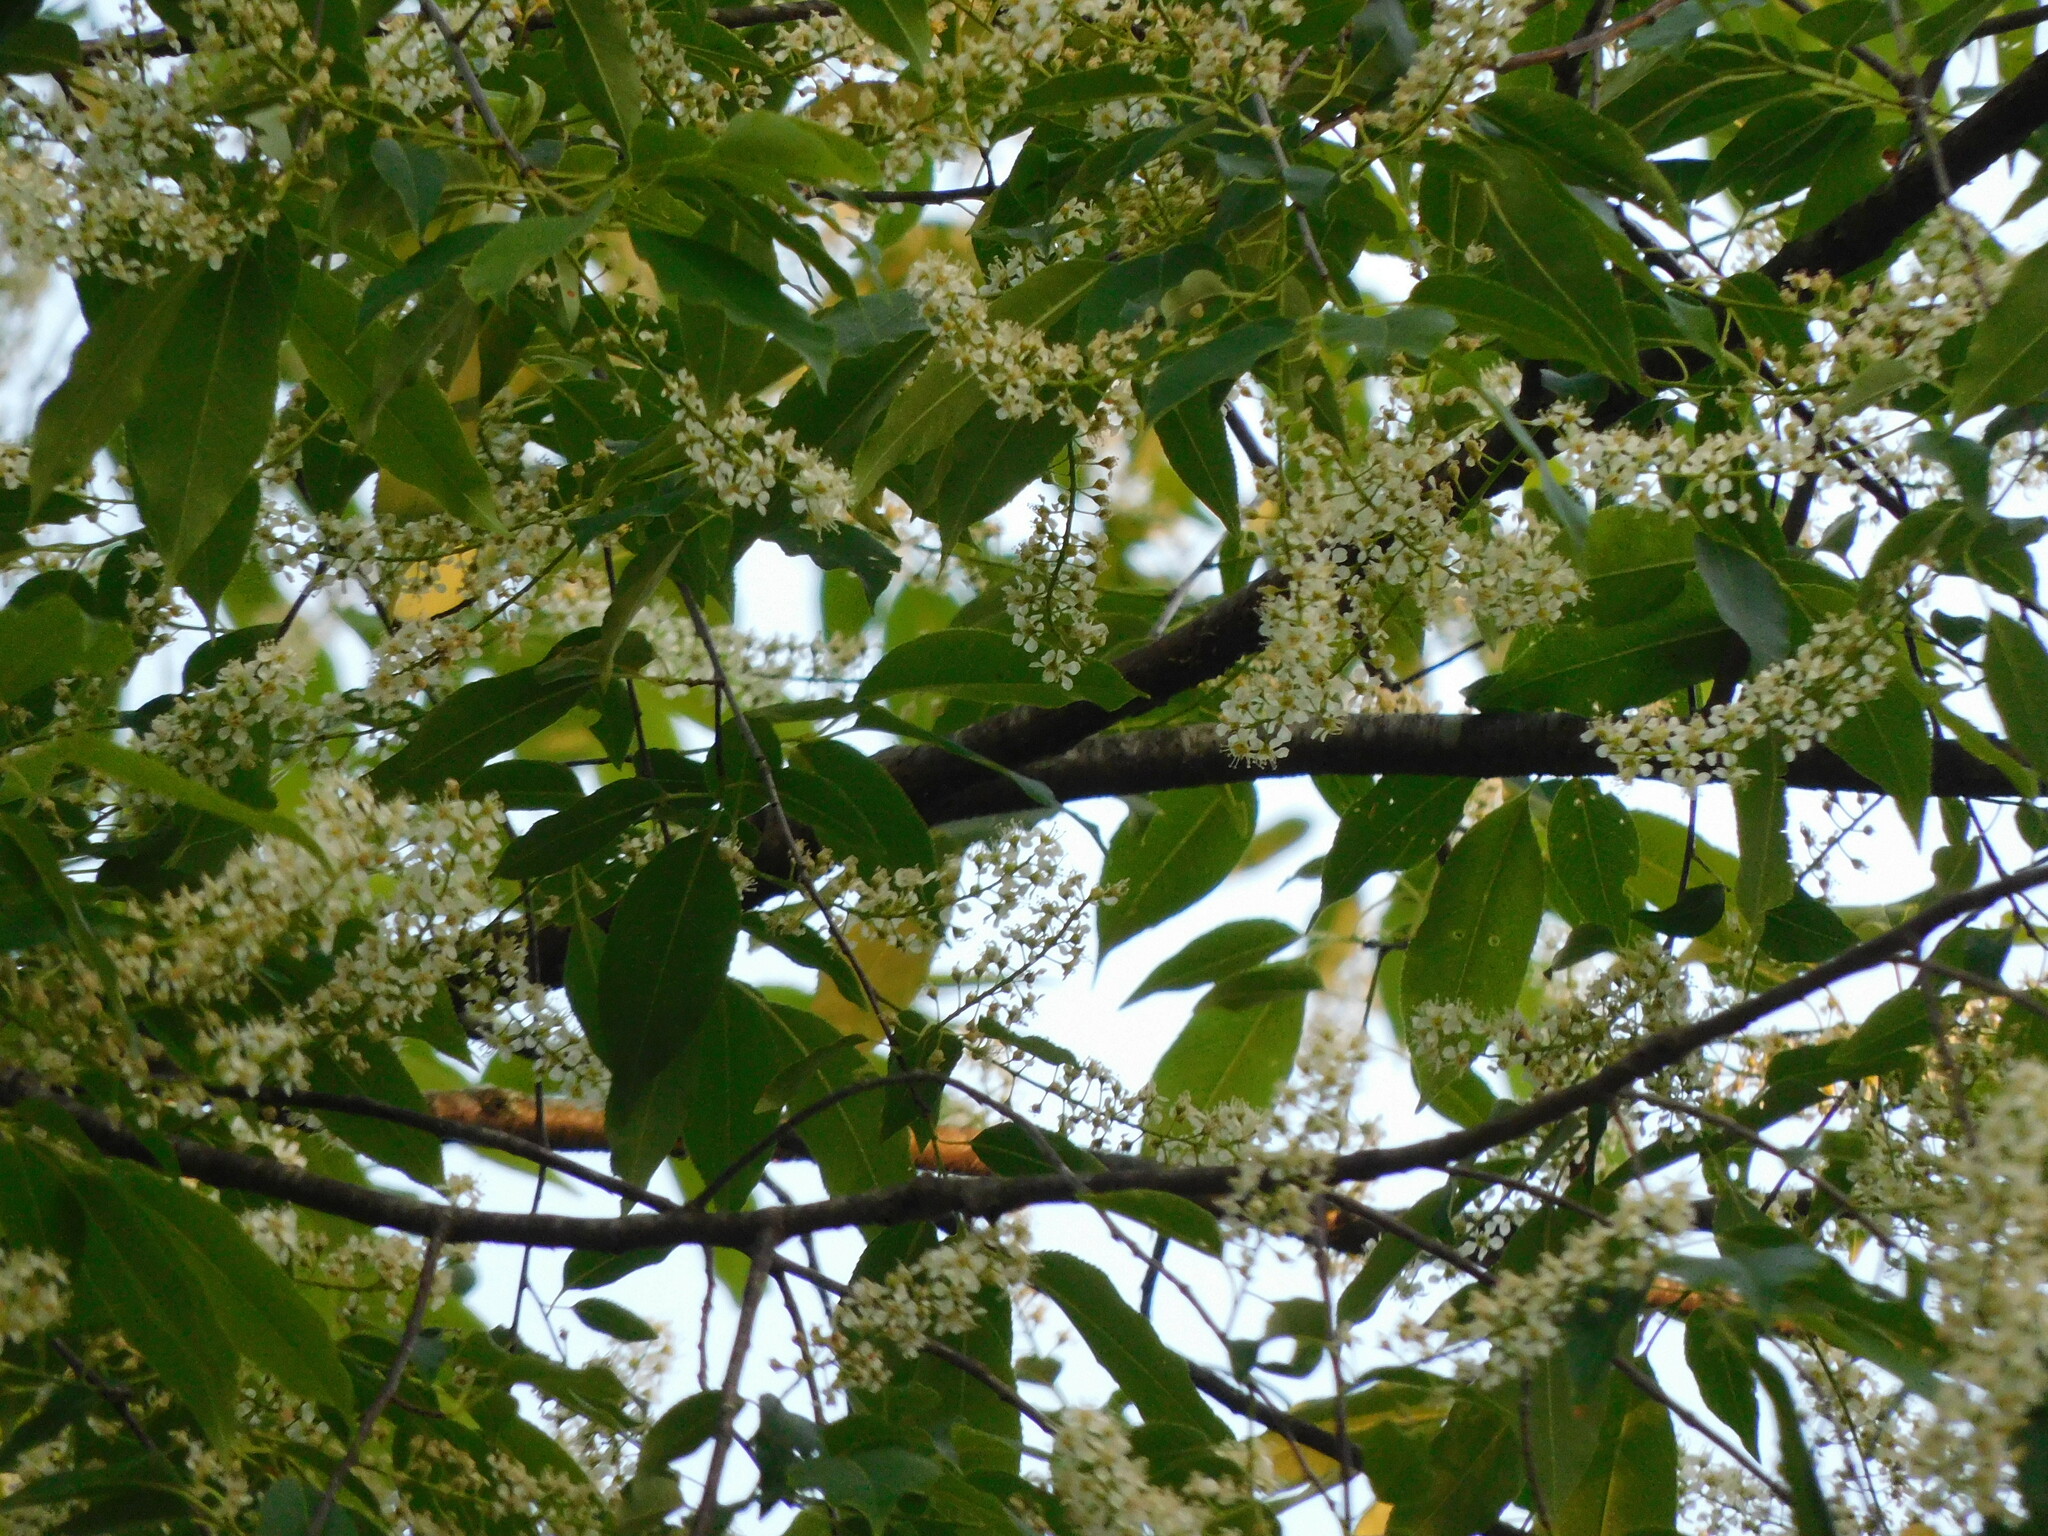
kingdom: Plantae
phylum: Tracheophyta
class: Magnoliopsida
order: Rosales
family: Rosaceae
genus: Prunus
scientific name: Prunus serotina
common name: Black cherry
